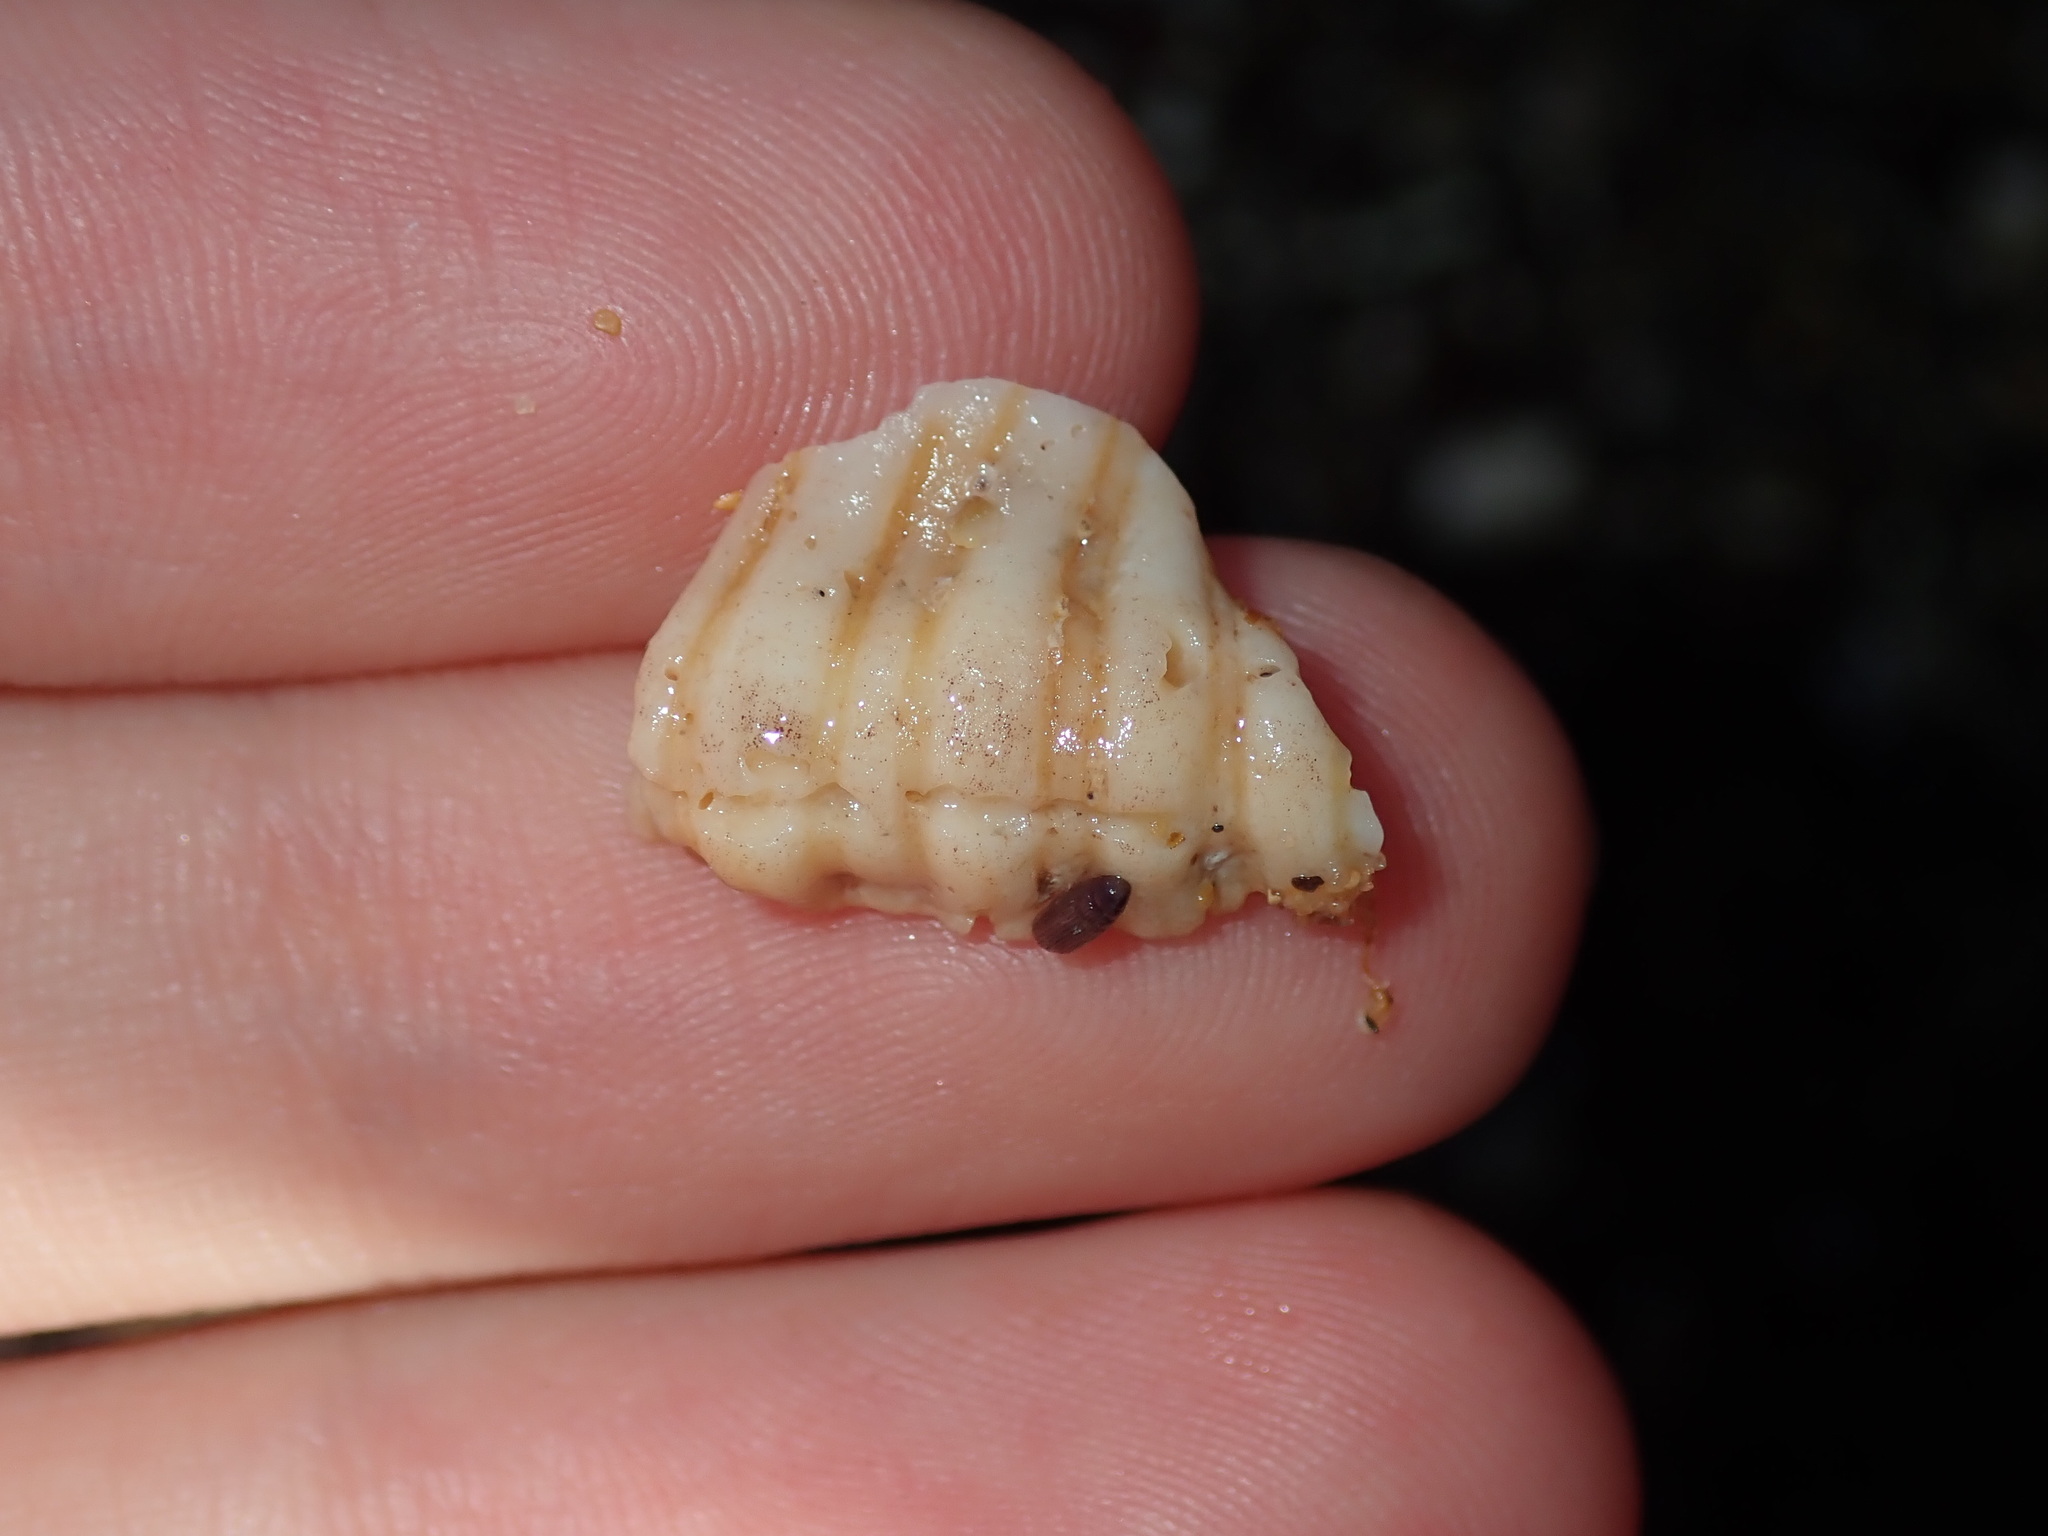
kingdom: Animalia
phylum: Mollusca
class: Gastropoda
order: Littorinimorpha
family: Cymatiidae
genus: Cabestana
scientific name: Cabestana spengleri
